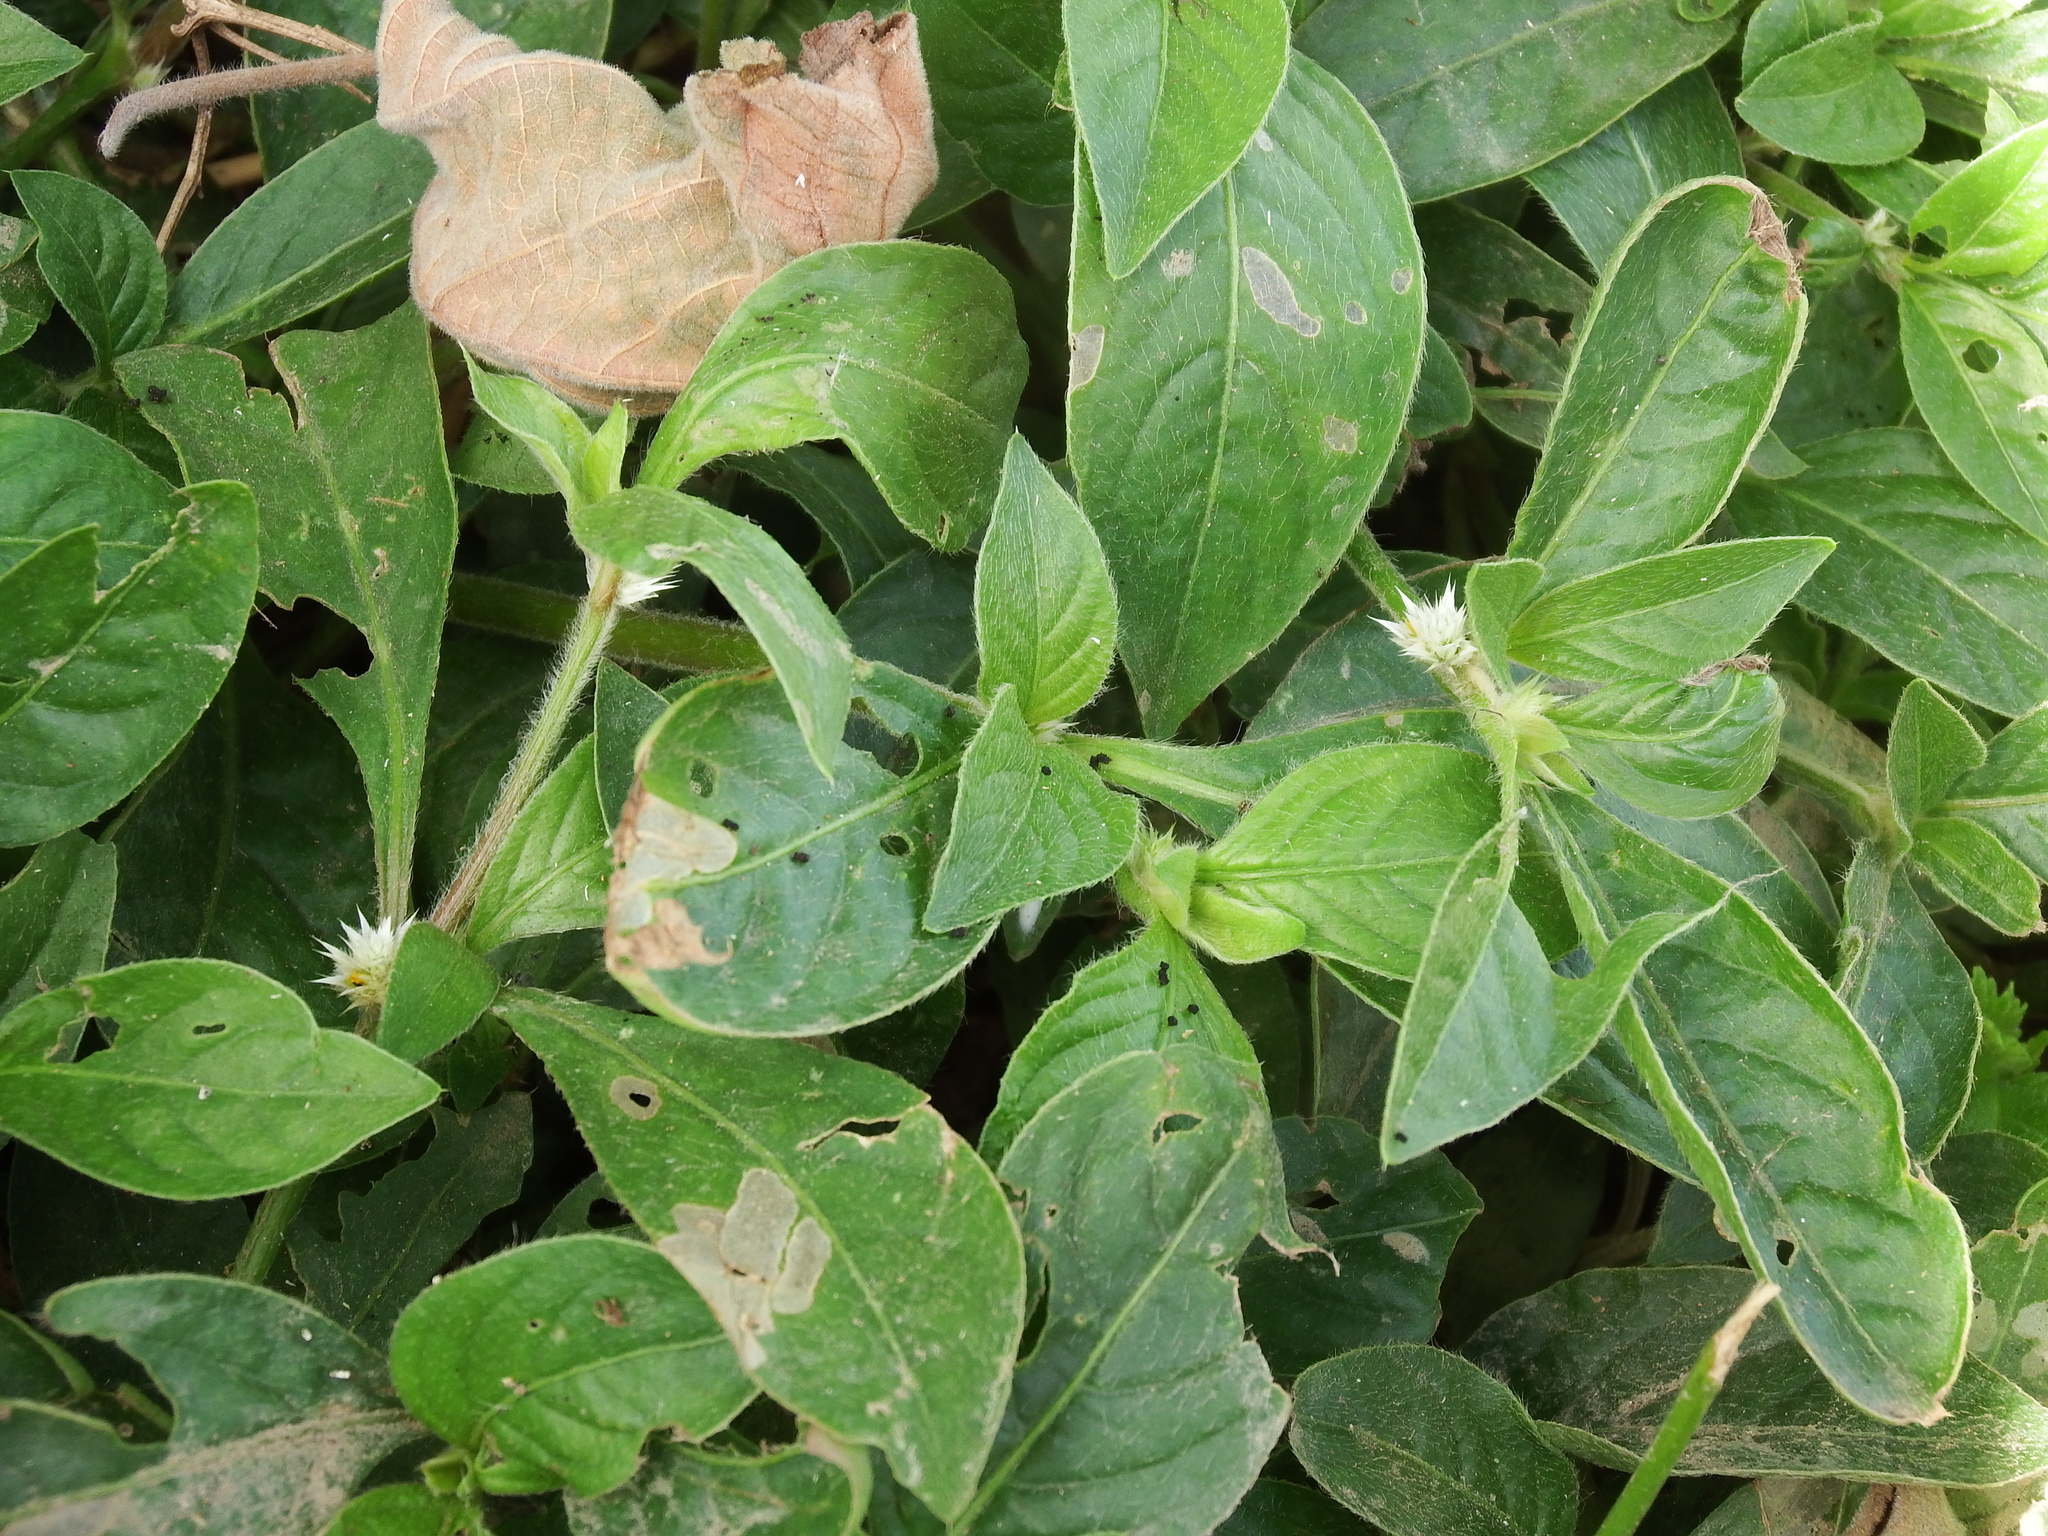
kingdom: Plantae
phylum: Tracheophyta
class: Magnoliopsida
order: Caryophyllales
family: Amaranthaceae
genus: Alternanthera
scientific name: Alternanthera bettzickiana
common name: Calico-plant
